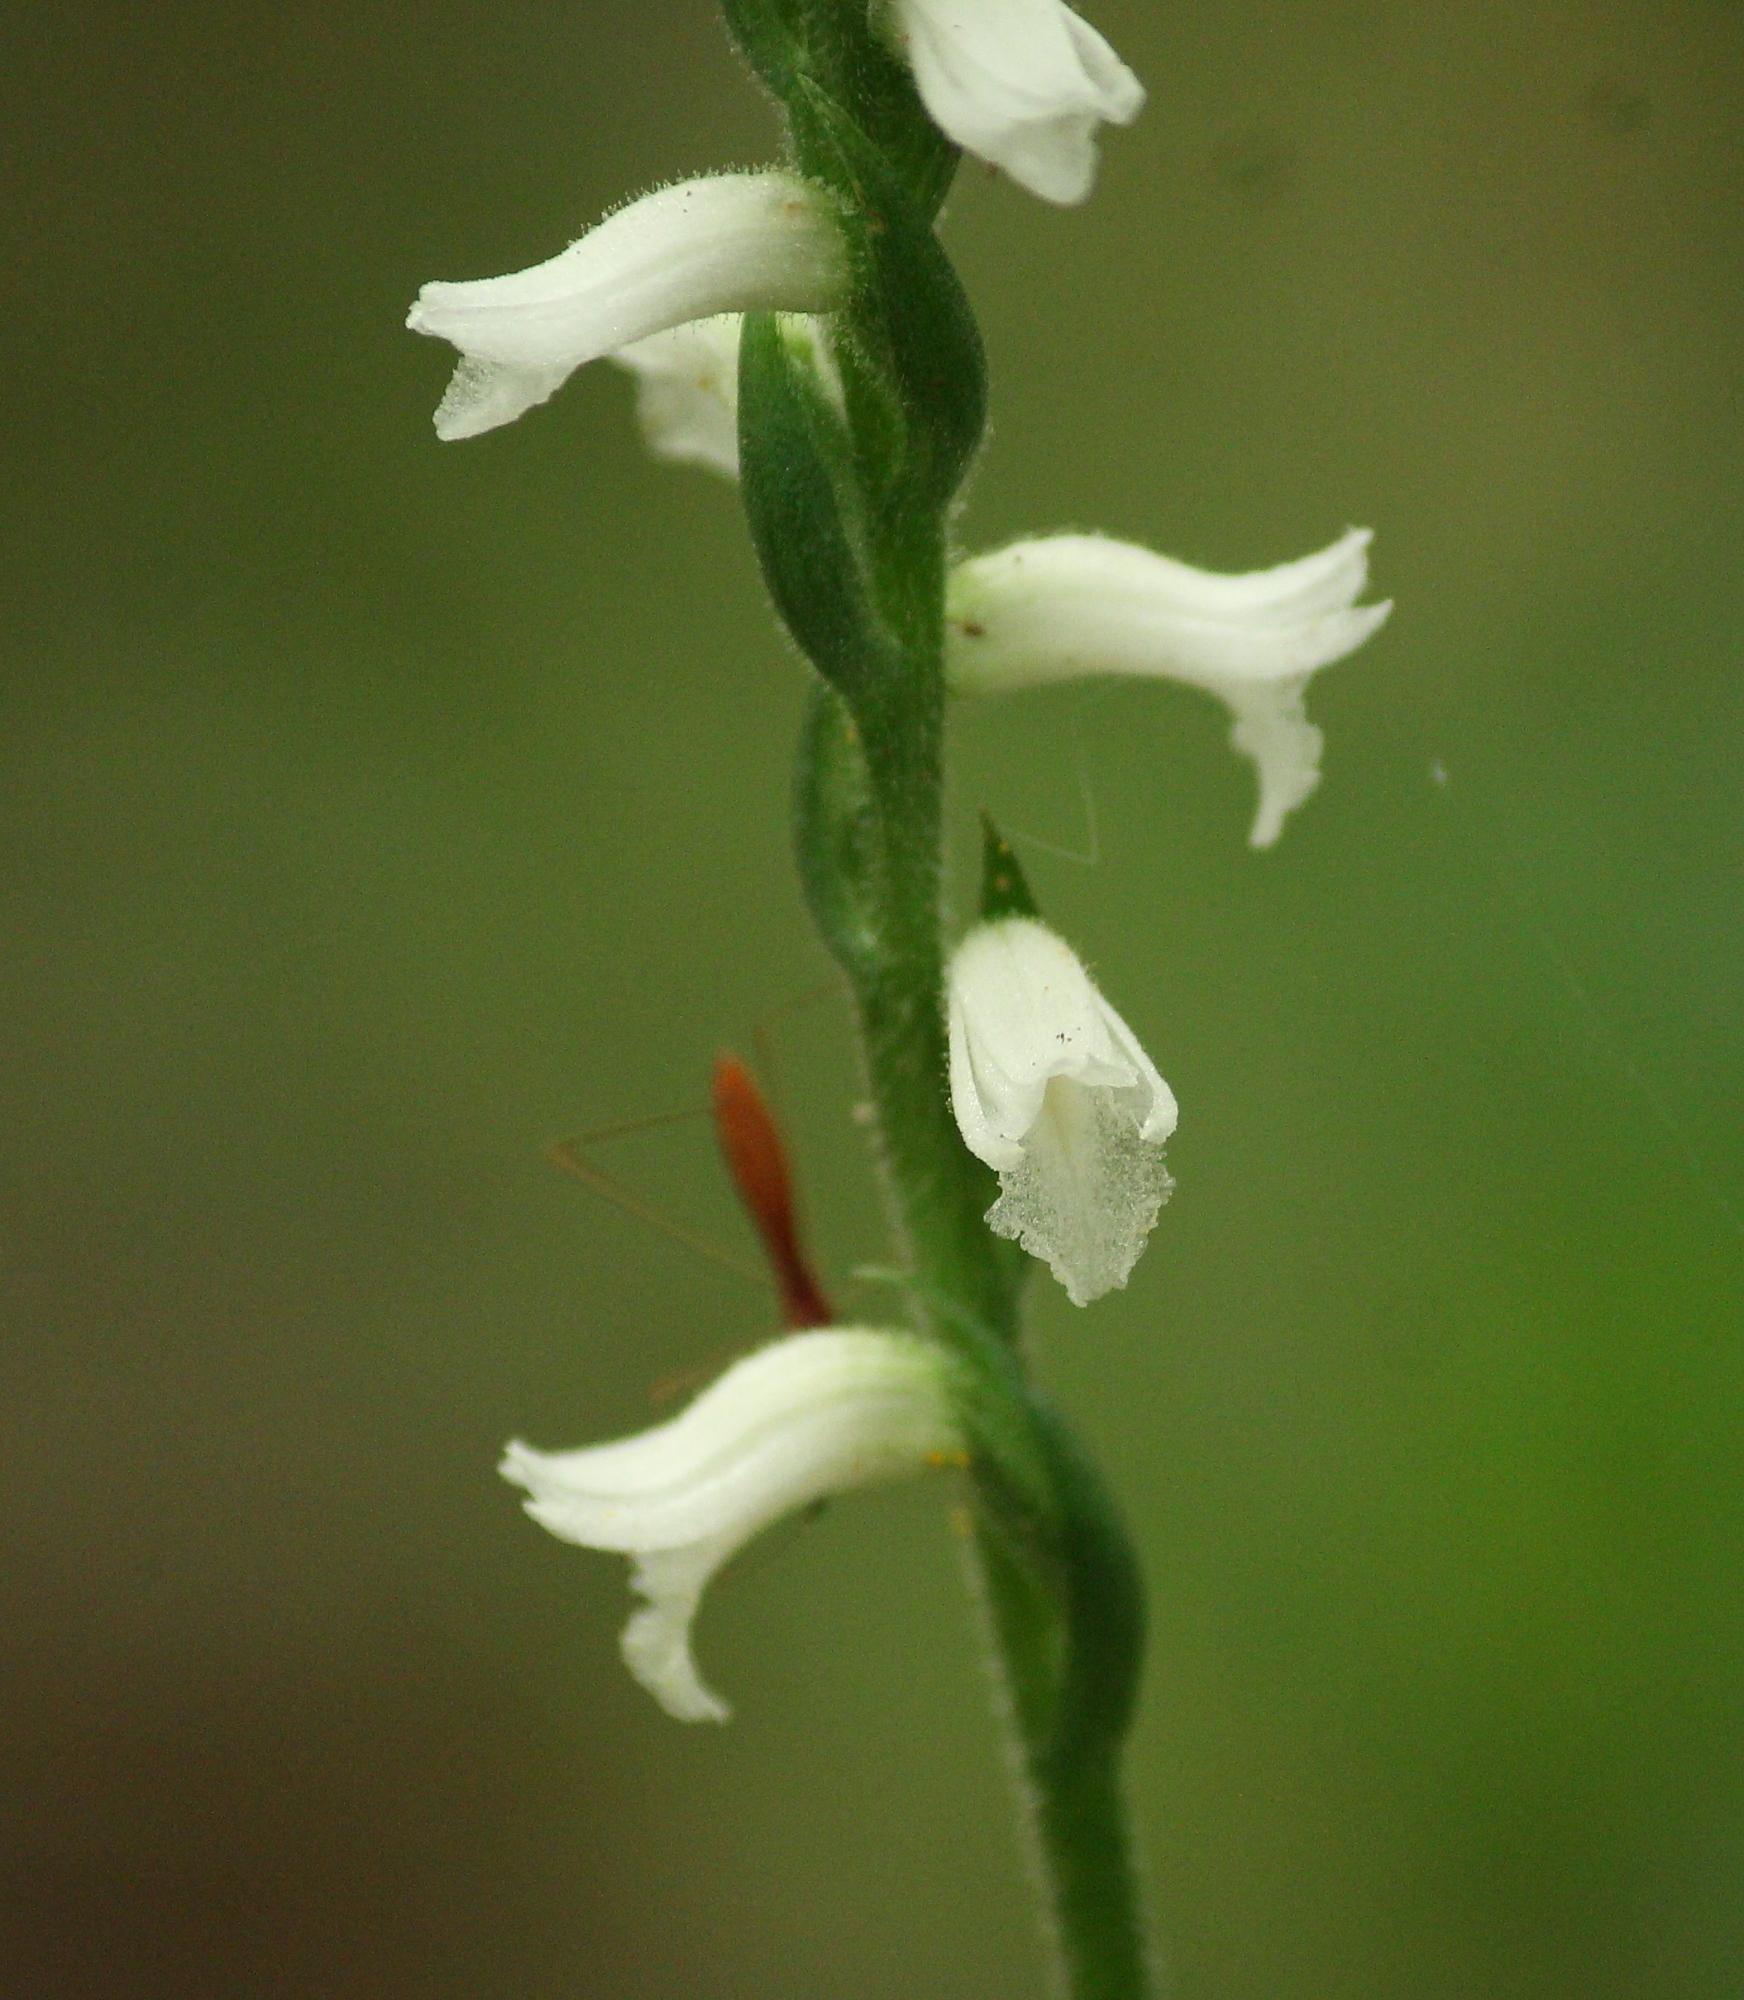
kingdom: Plantae
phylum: Tracheophyta
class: Liliopsida
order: Asparagales
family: Orchidaceae
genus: Spiranthes
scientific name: Spiranthes niklasii
